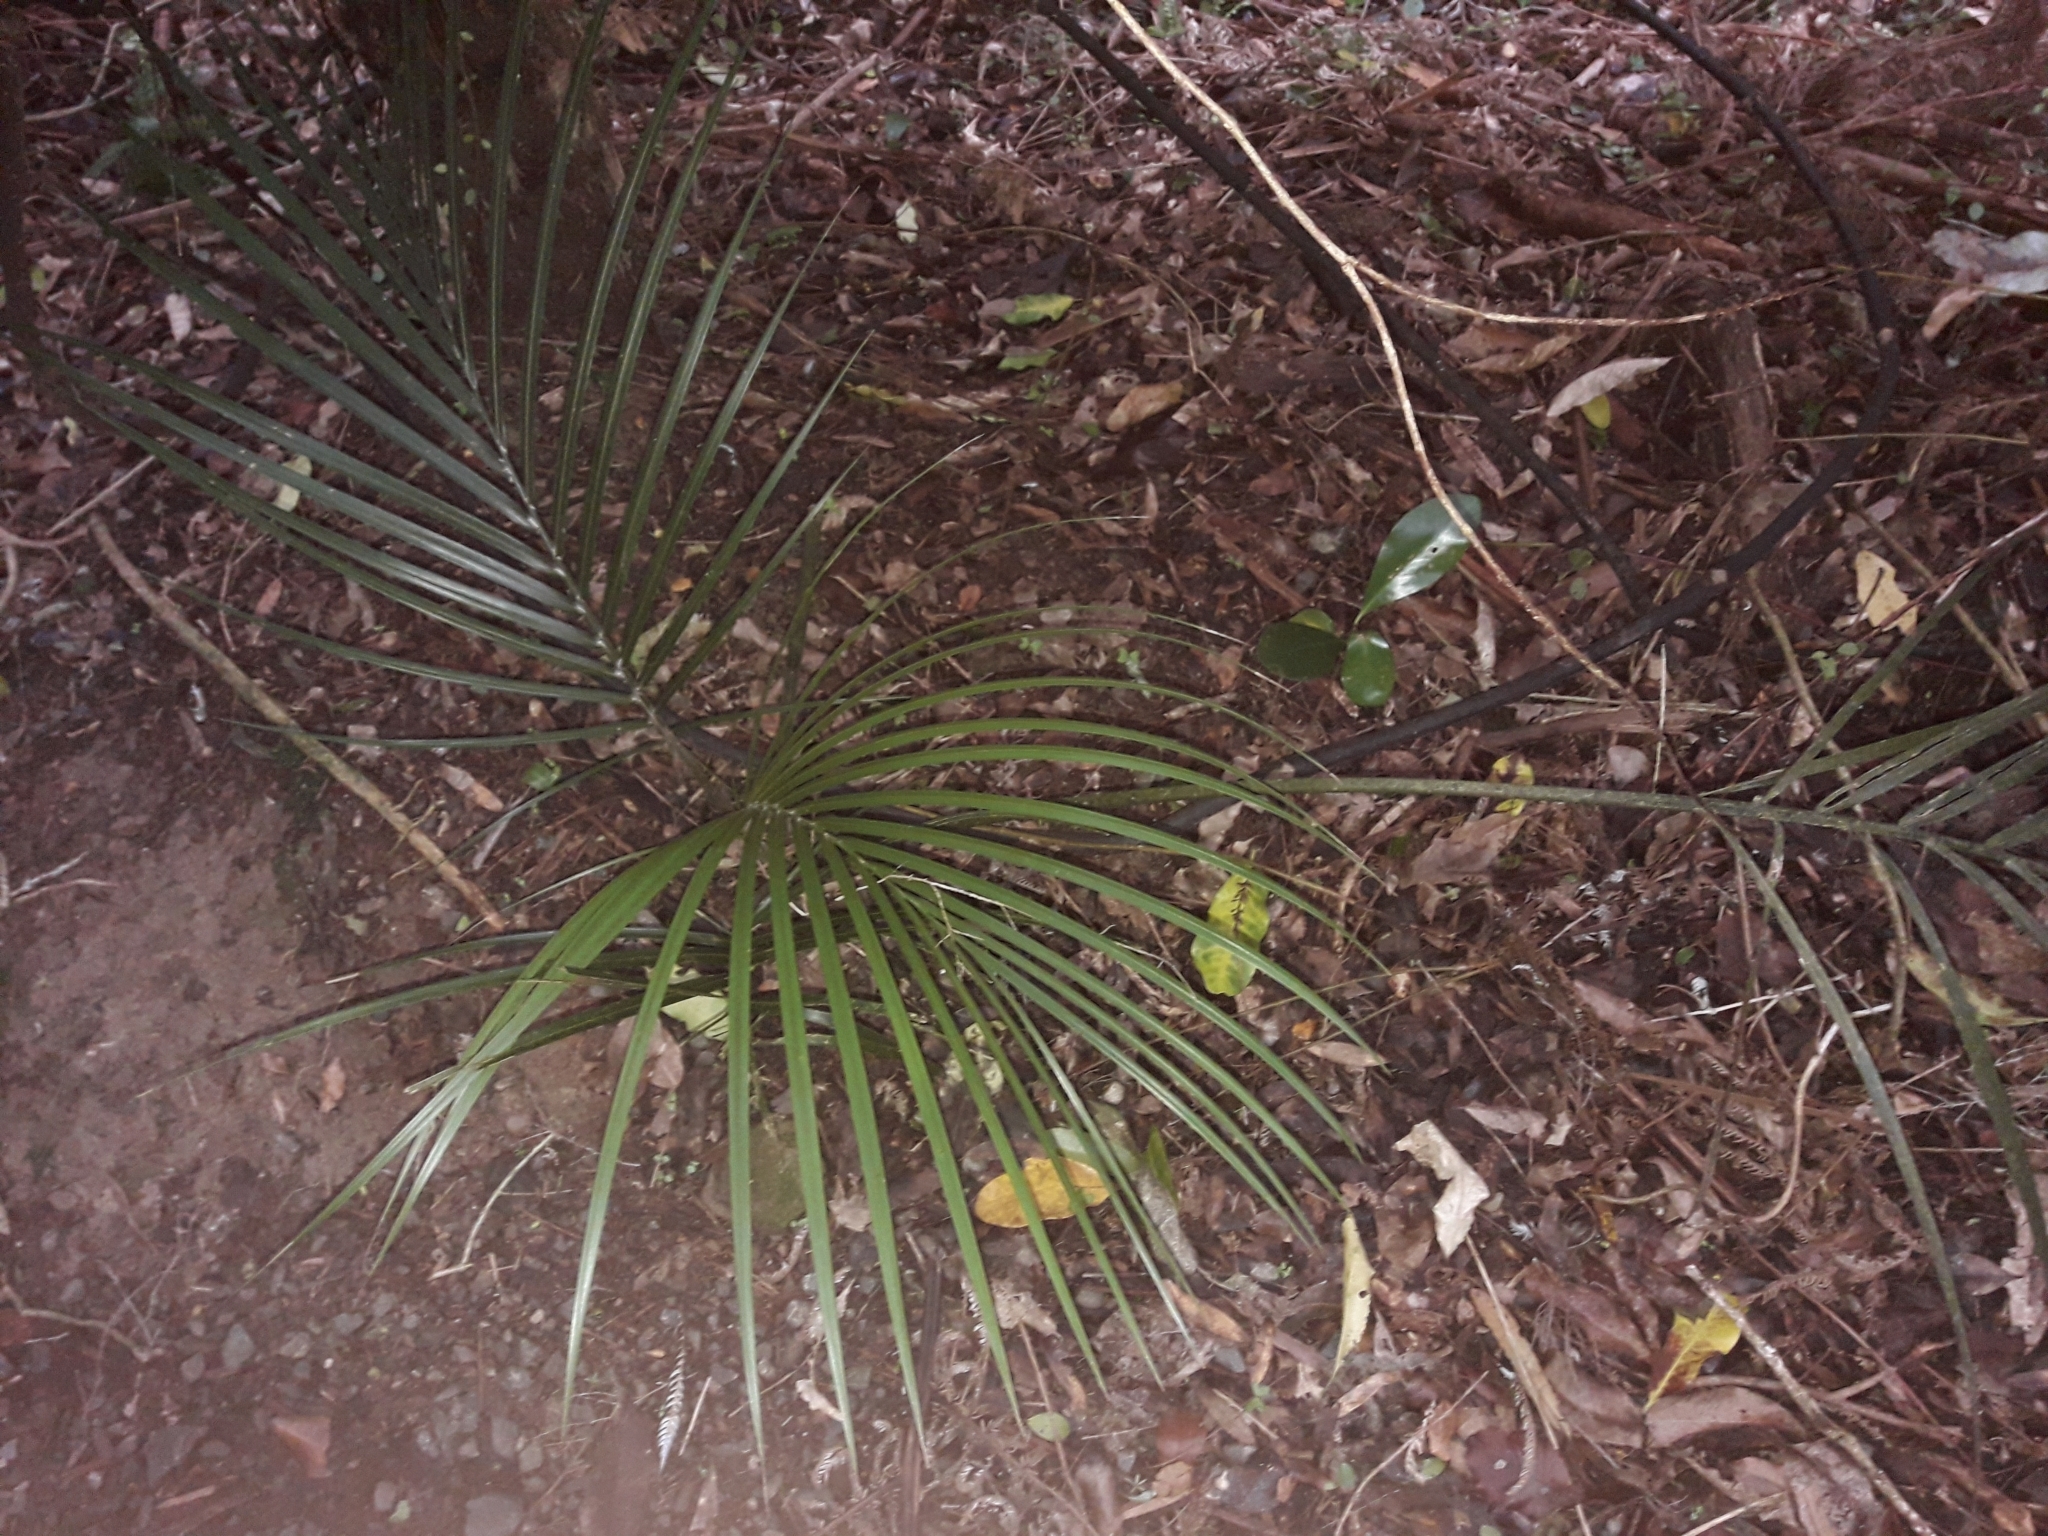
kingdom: Plantae
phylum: Tracheophyta
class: Liliopsida
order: Arecales
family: Arecaceae
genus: Rhopalostylis
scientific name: Rhopalostylis sapida
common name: Feather-duster palm
